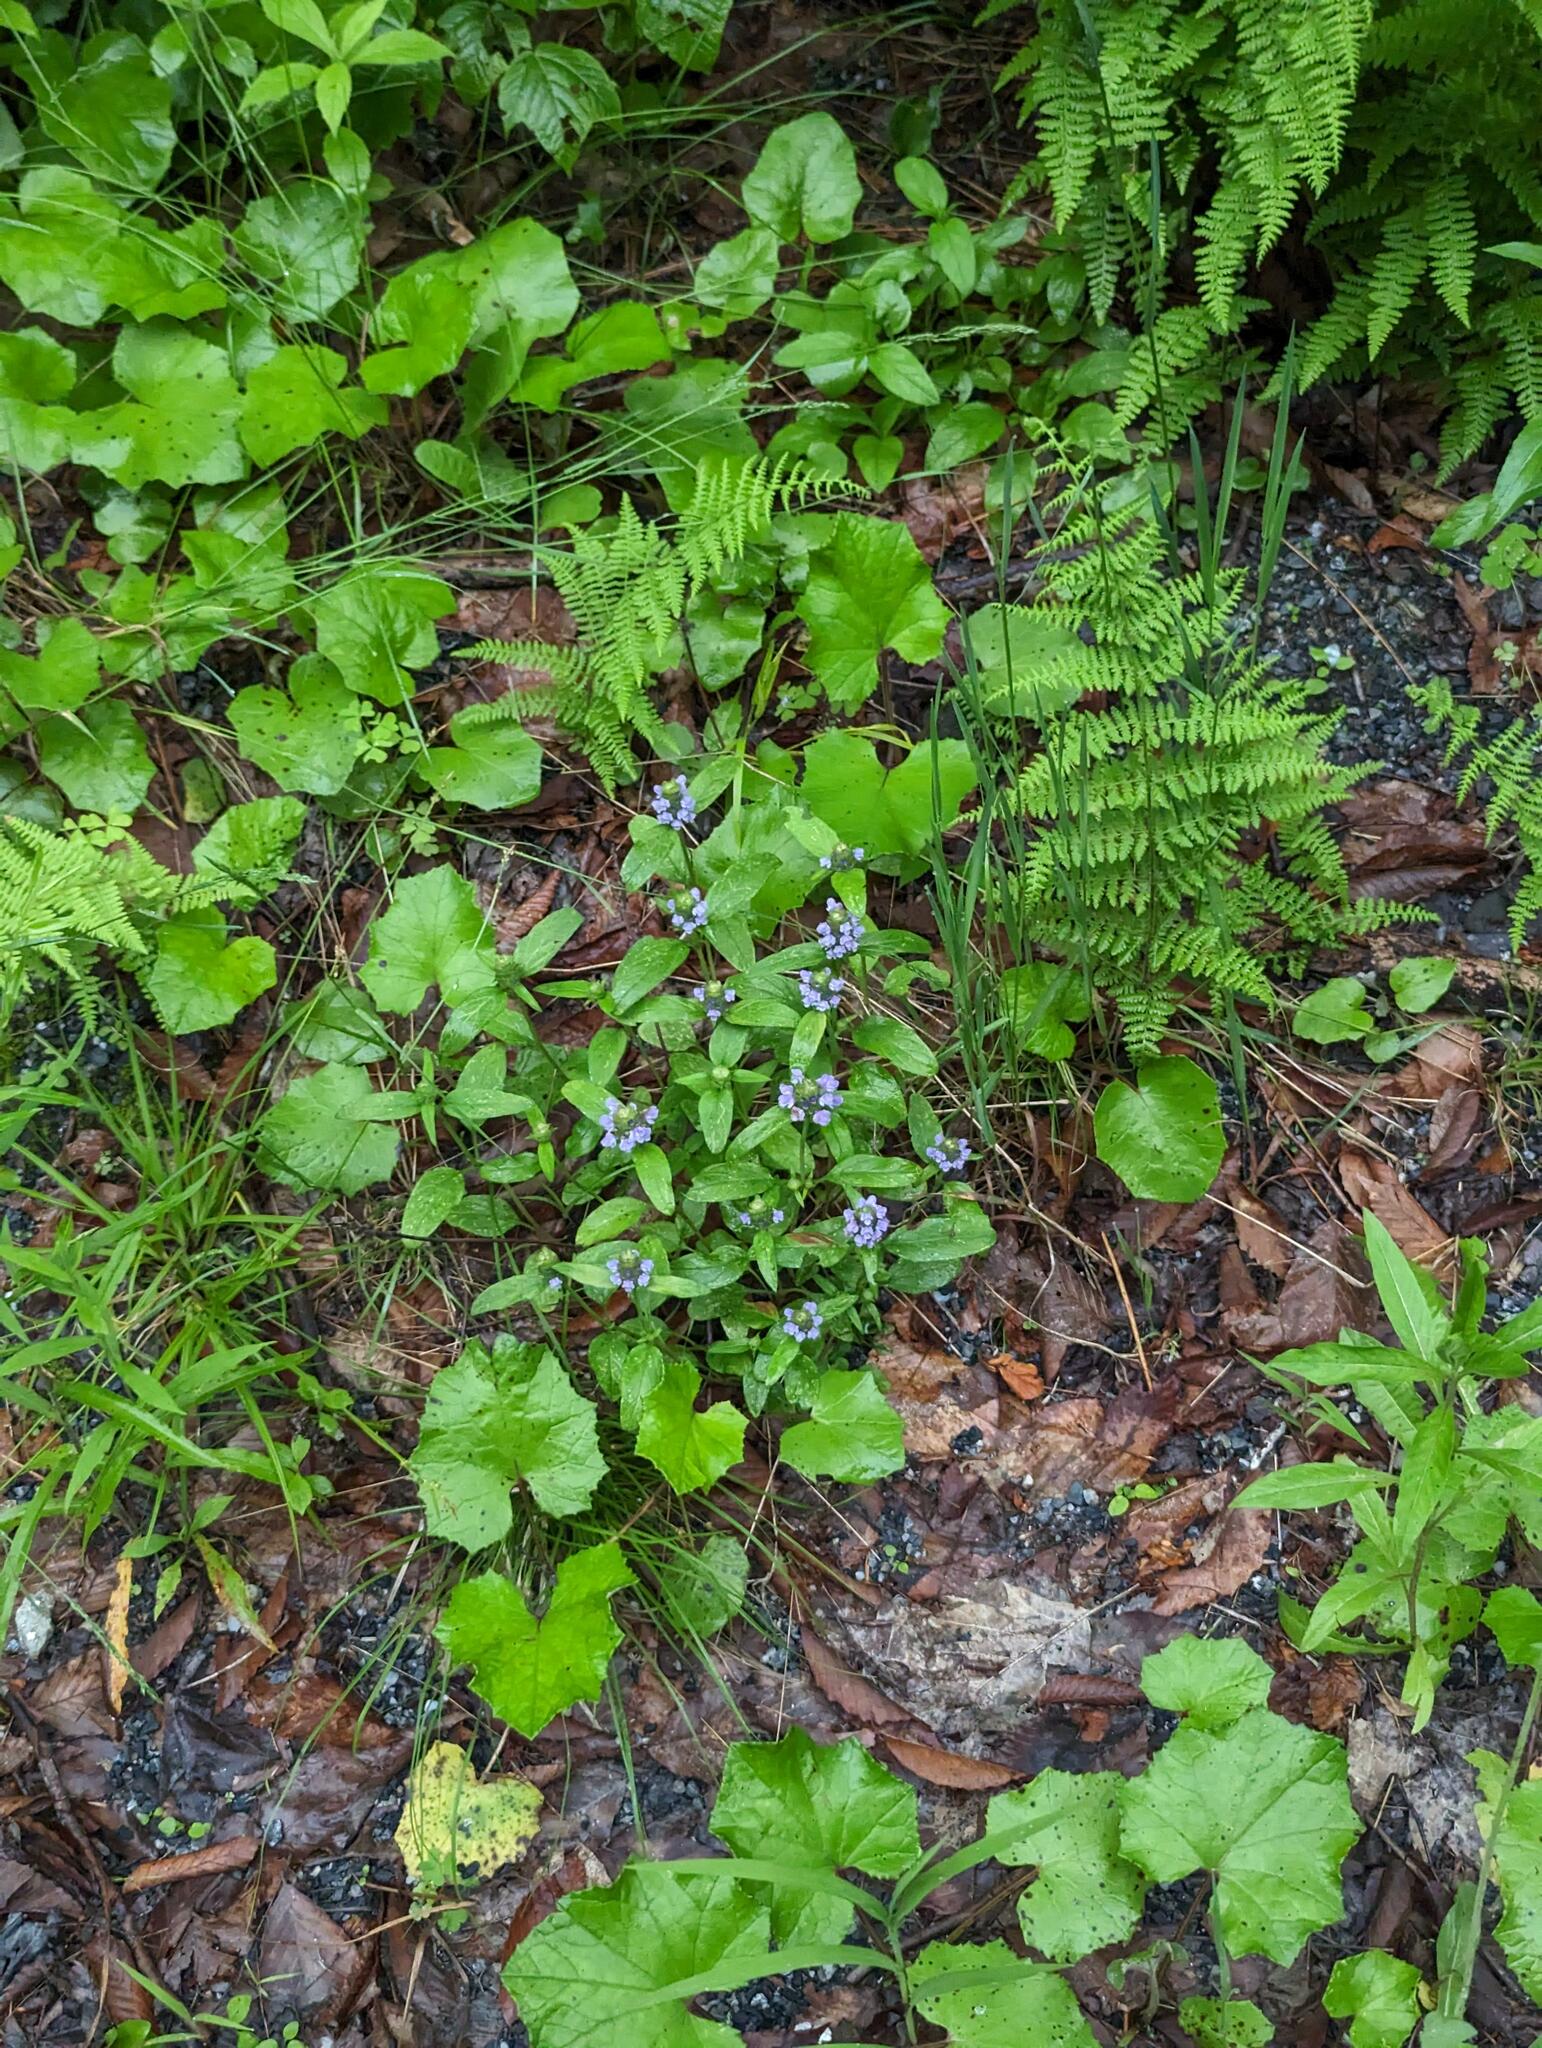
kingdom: Plantae
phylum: Tracheophyta
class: Magnoliopsida
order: Lamiales
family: Lamiaceae
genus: Prunella
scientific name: Prunella vulgaris
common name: Heal-all
